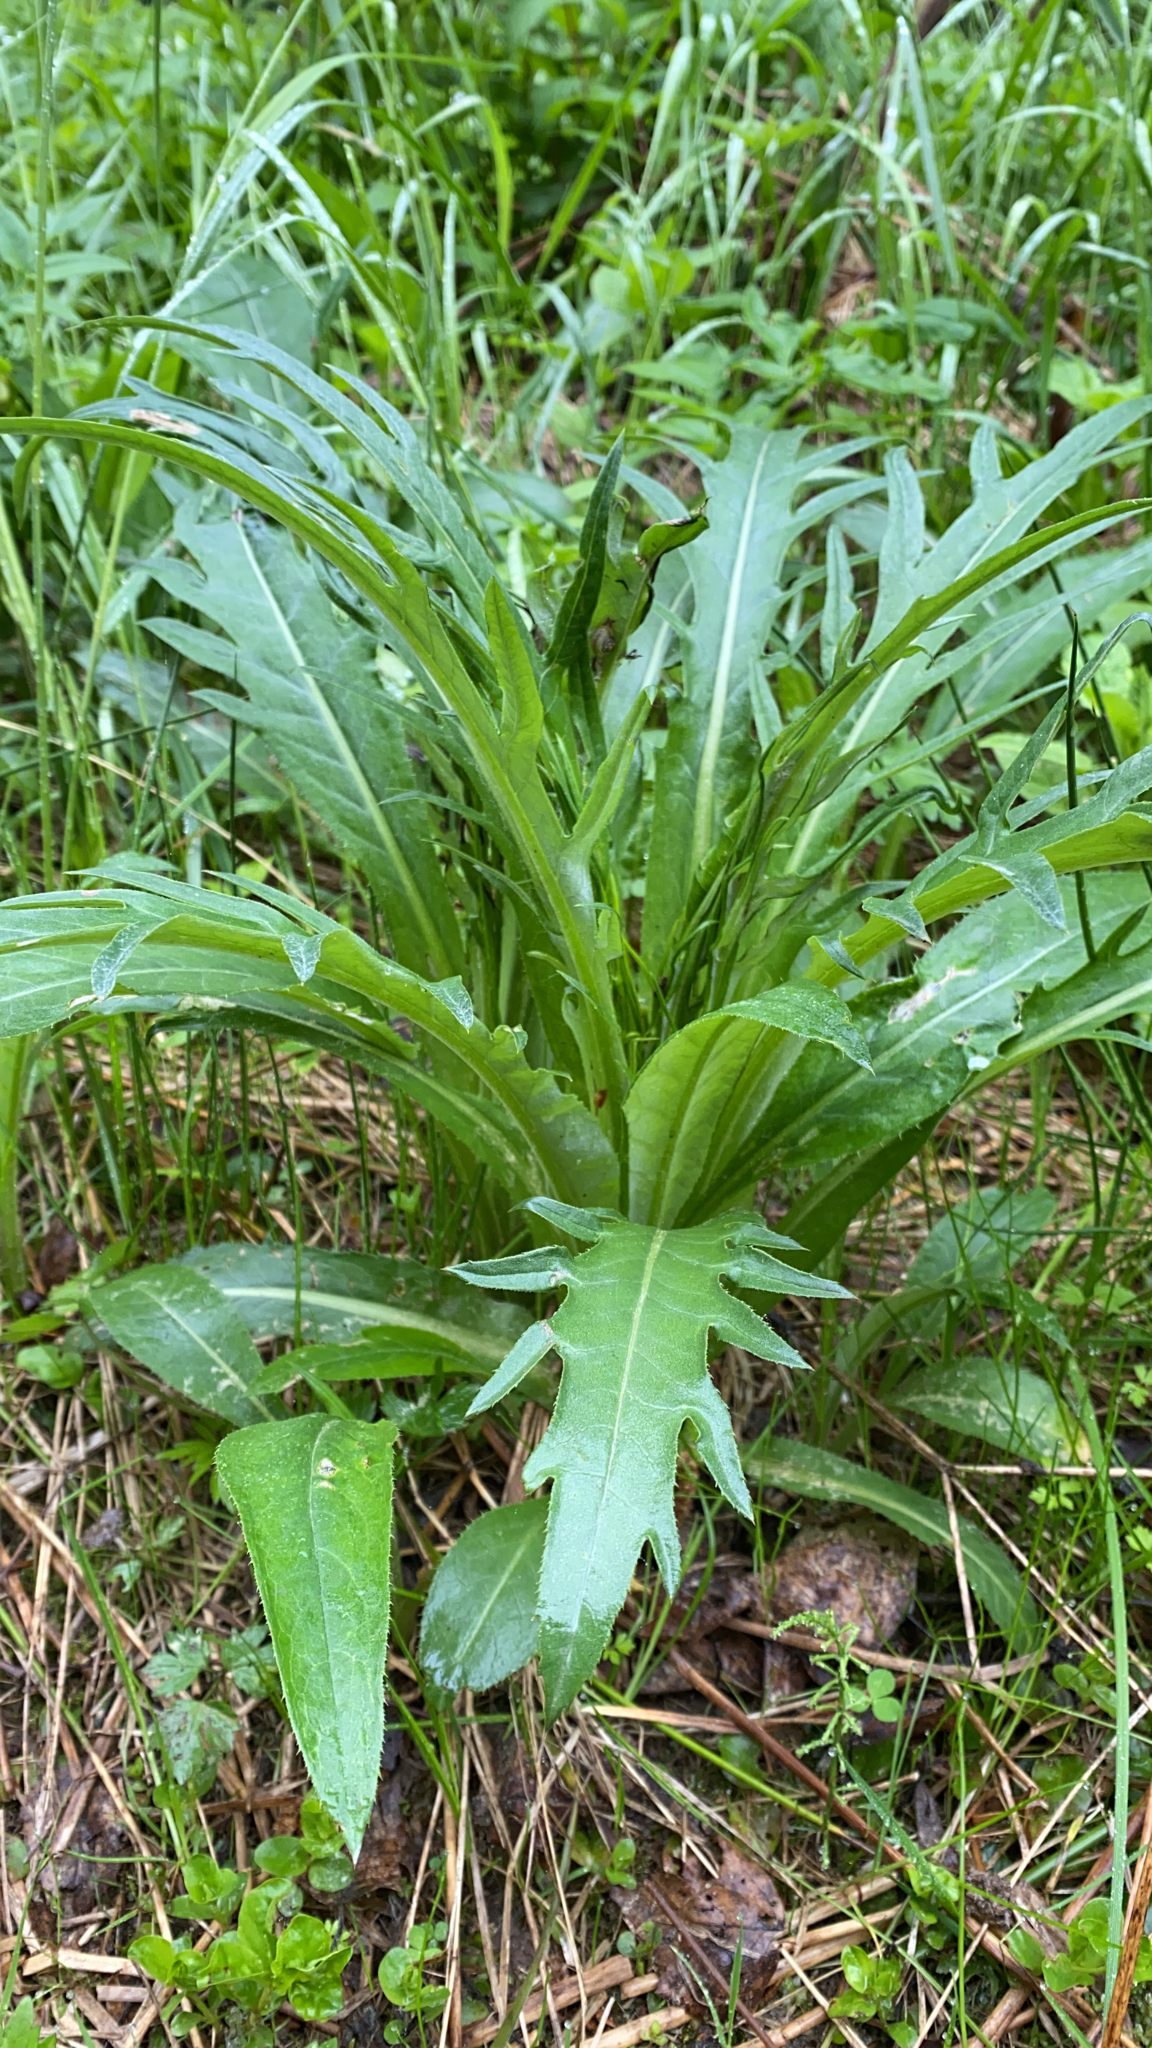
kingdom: Plantae
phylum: Tracheophyta
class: Magnoliopsida
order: Asterales
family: Asteraceae
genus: Cirsium
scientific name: Cirsium heterophyllum
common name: Melancholy thistle
